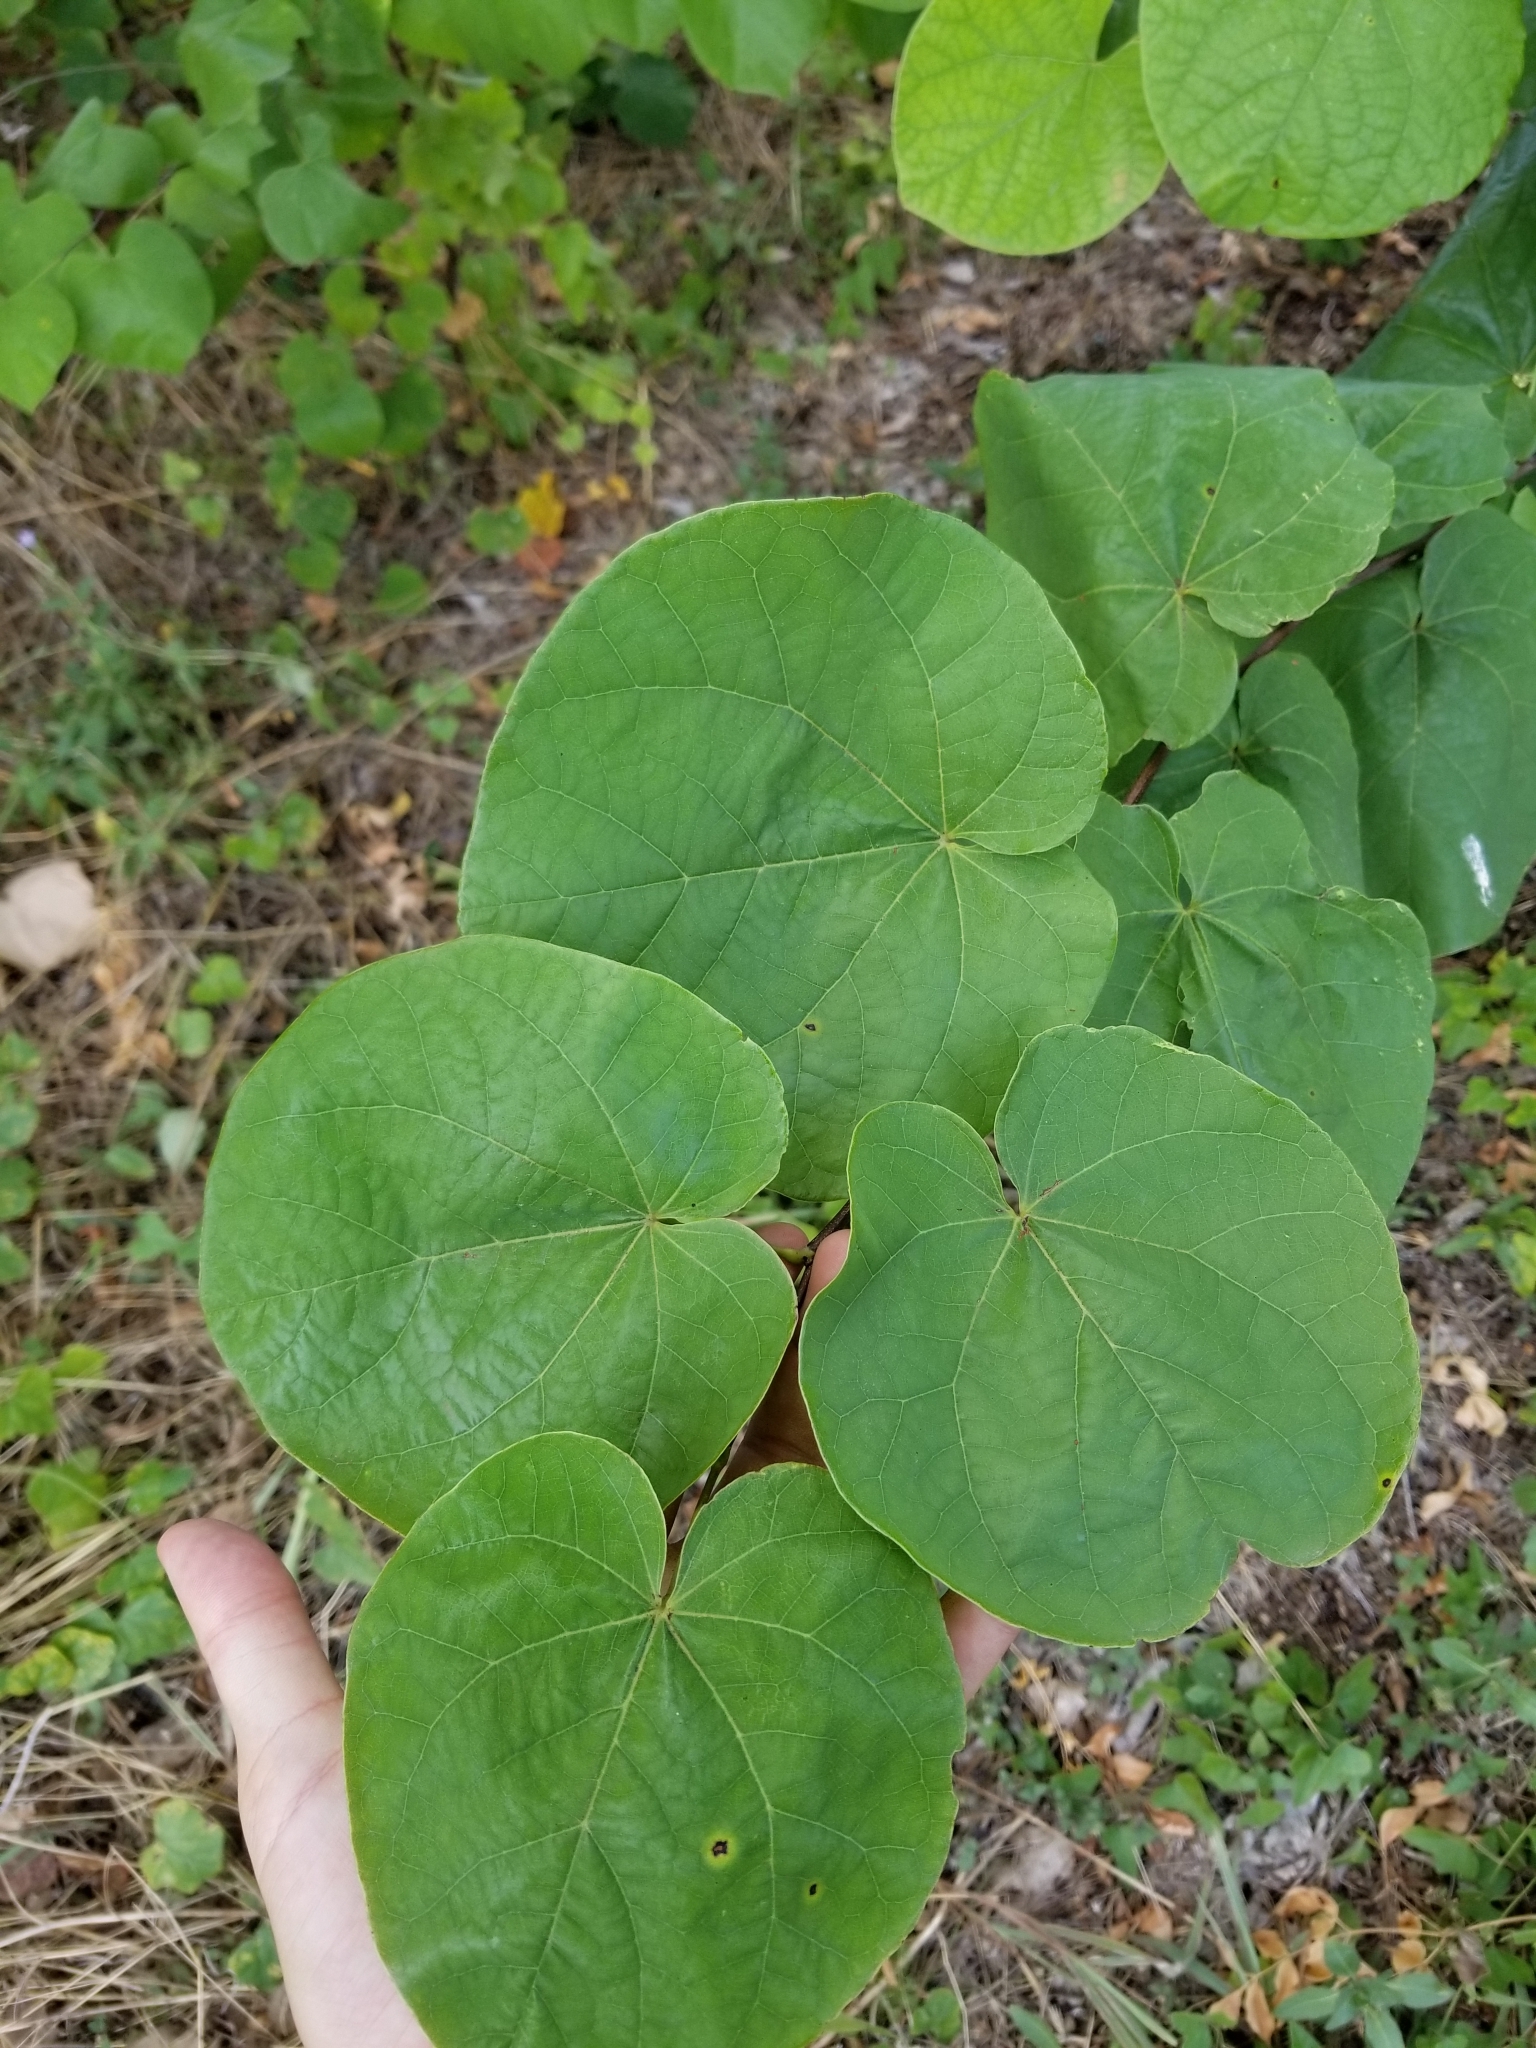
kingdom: Plantae
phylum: Tracheophyta
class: Magnoliopsida
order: Fabales
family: Fabaceae
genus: Cercis
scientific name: Cercis canadensis
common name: Eastern redbud
